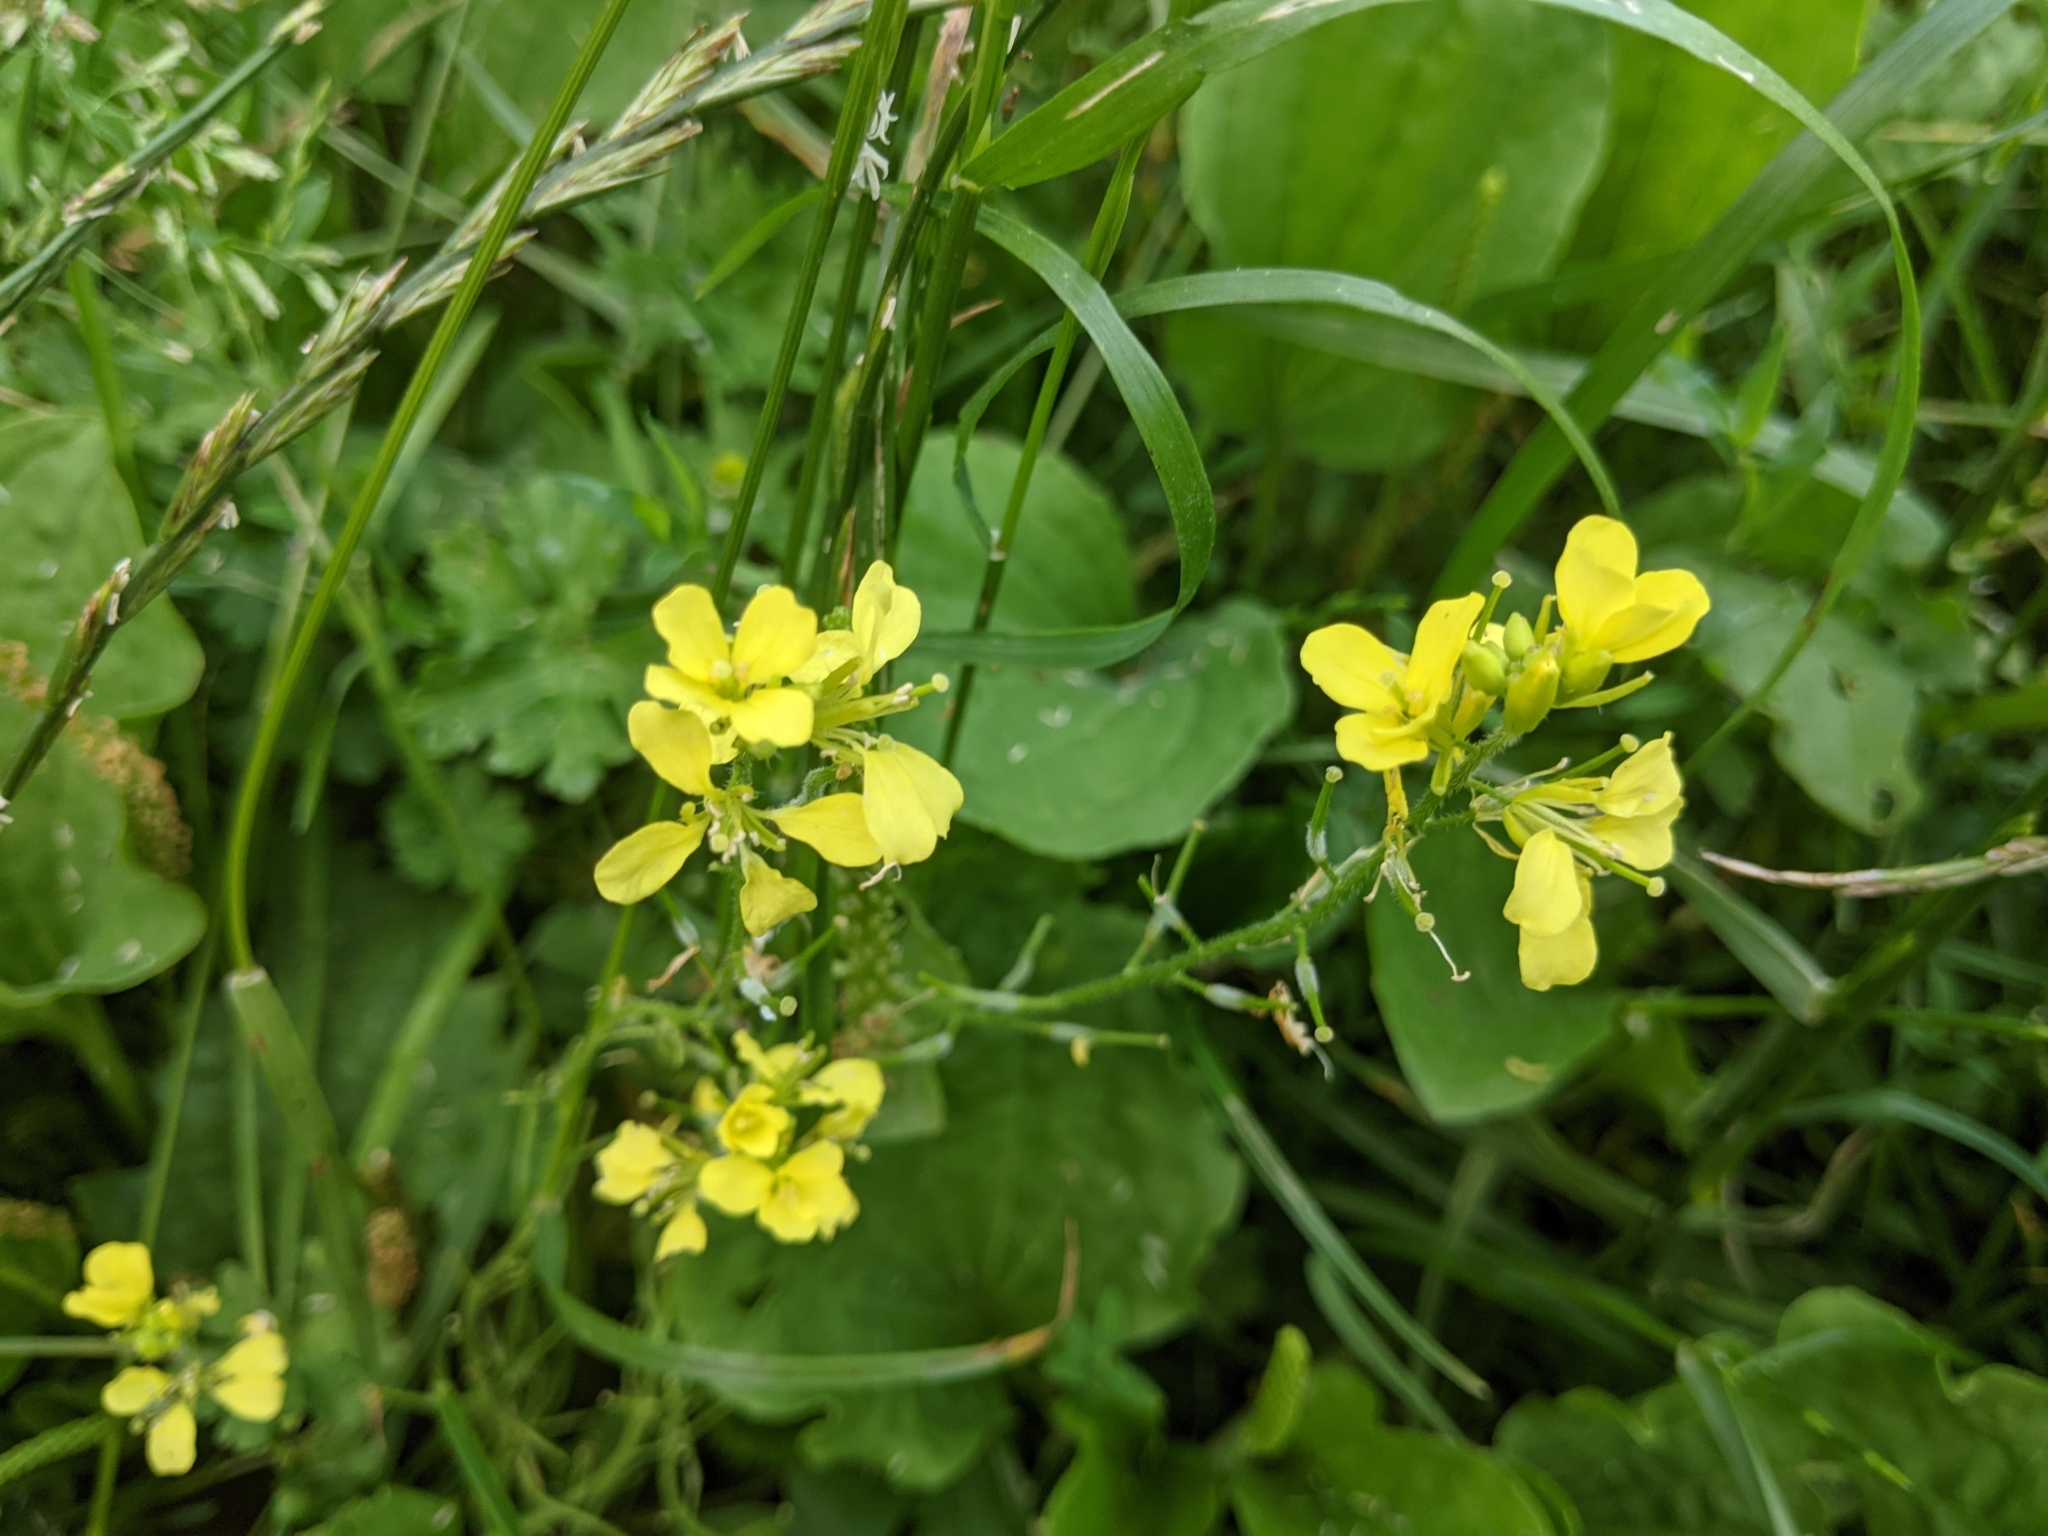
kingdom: Plantae
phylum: Tracheophyta
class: Magnoliopsida
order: Brassicales
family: Brassicaceae
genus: Sinapis
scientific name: Sinapis alba
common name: White mustard
